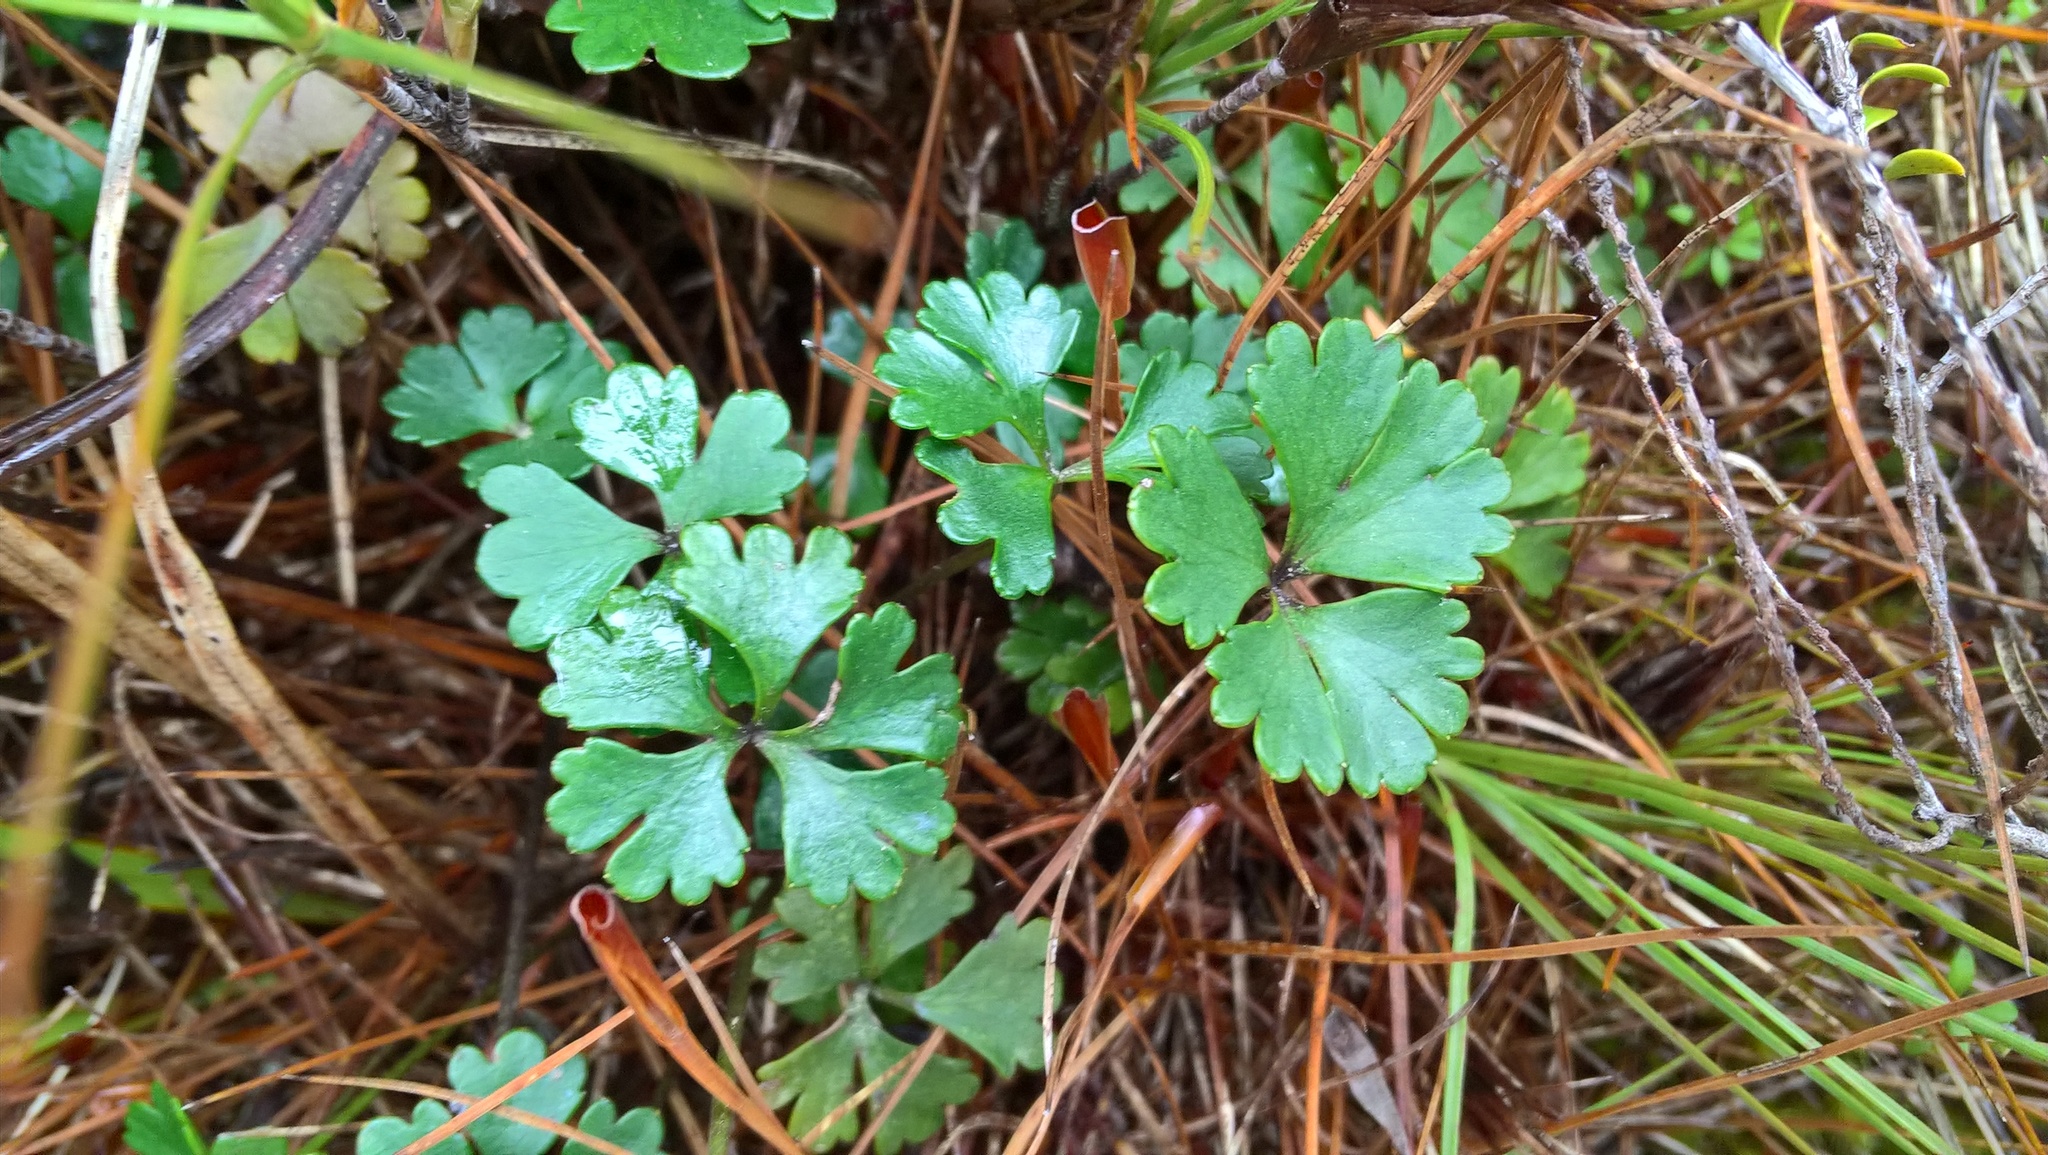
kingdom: Plantae
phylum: Tracheophyta
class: Magnoliopsida
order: Apiales
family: Apiaceae
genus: Azorella
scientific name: Azorella roughii
